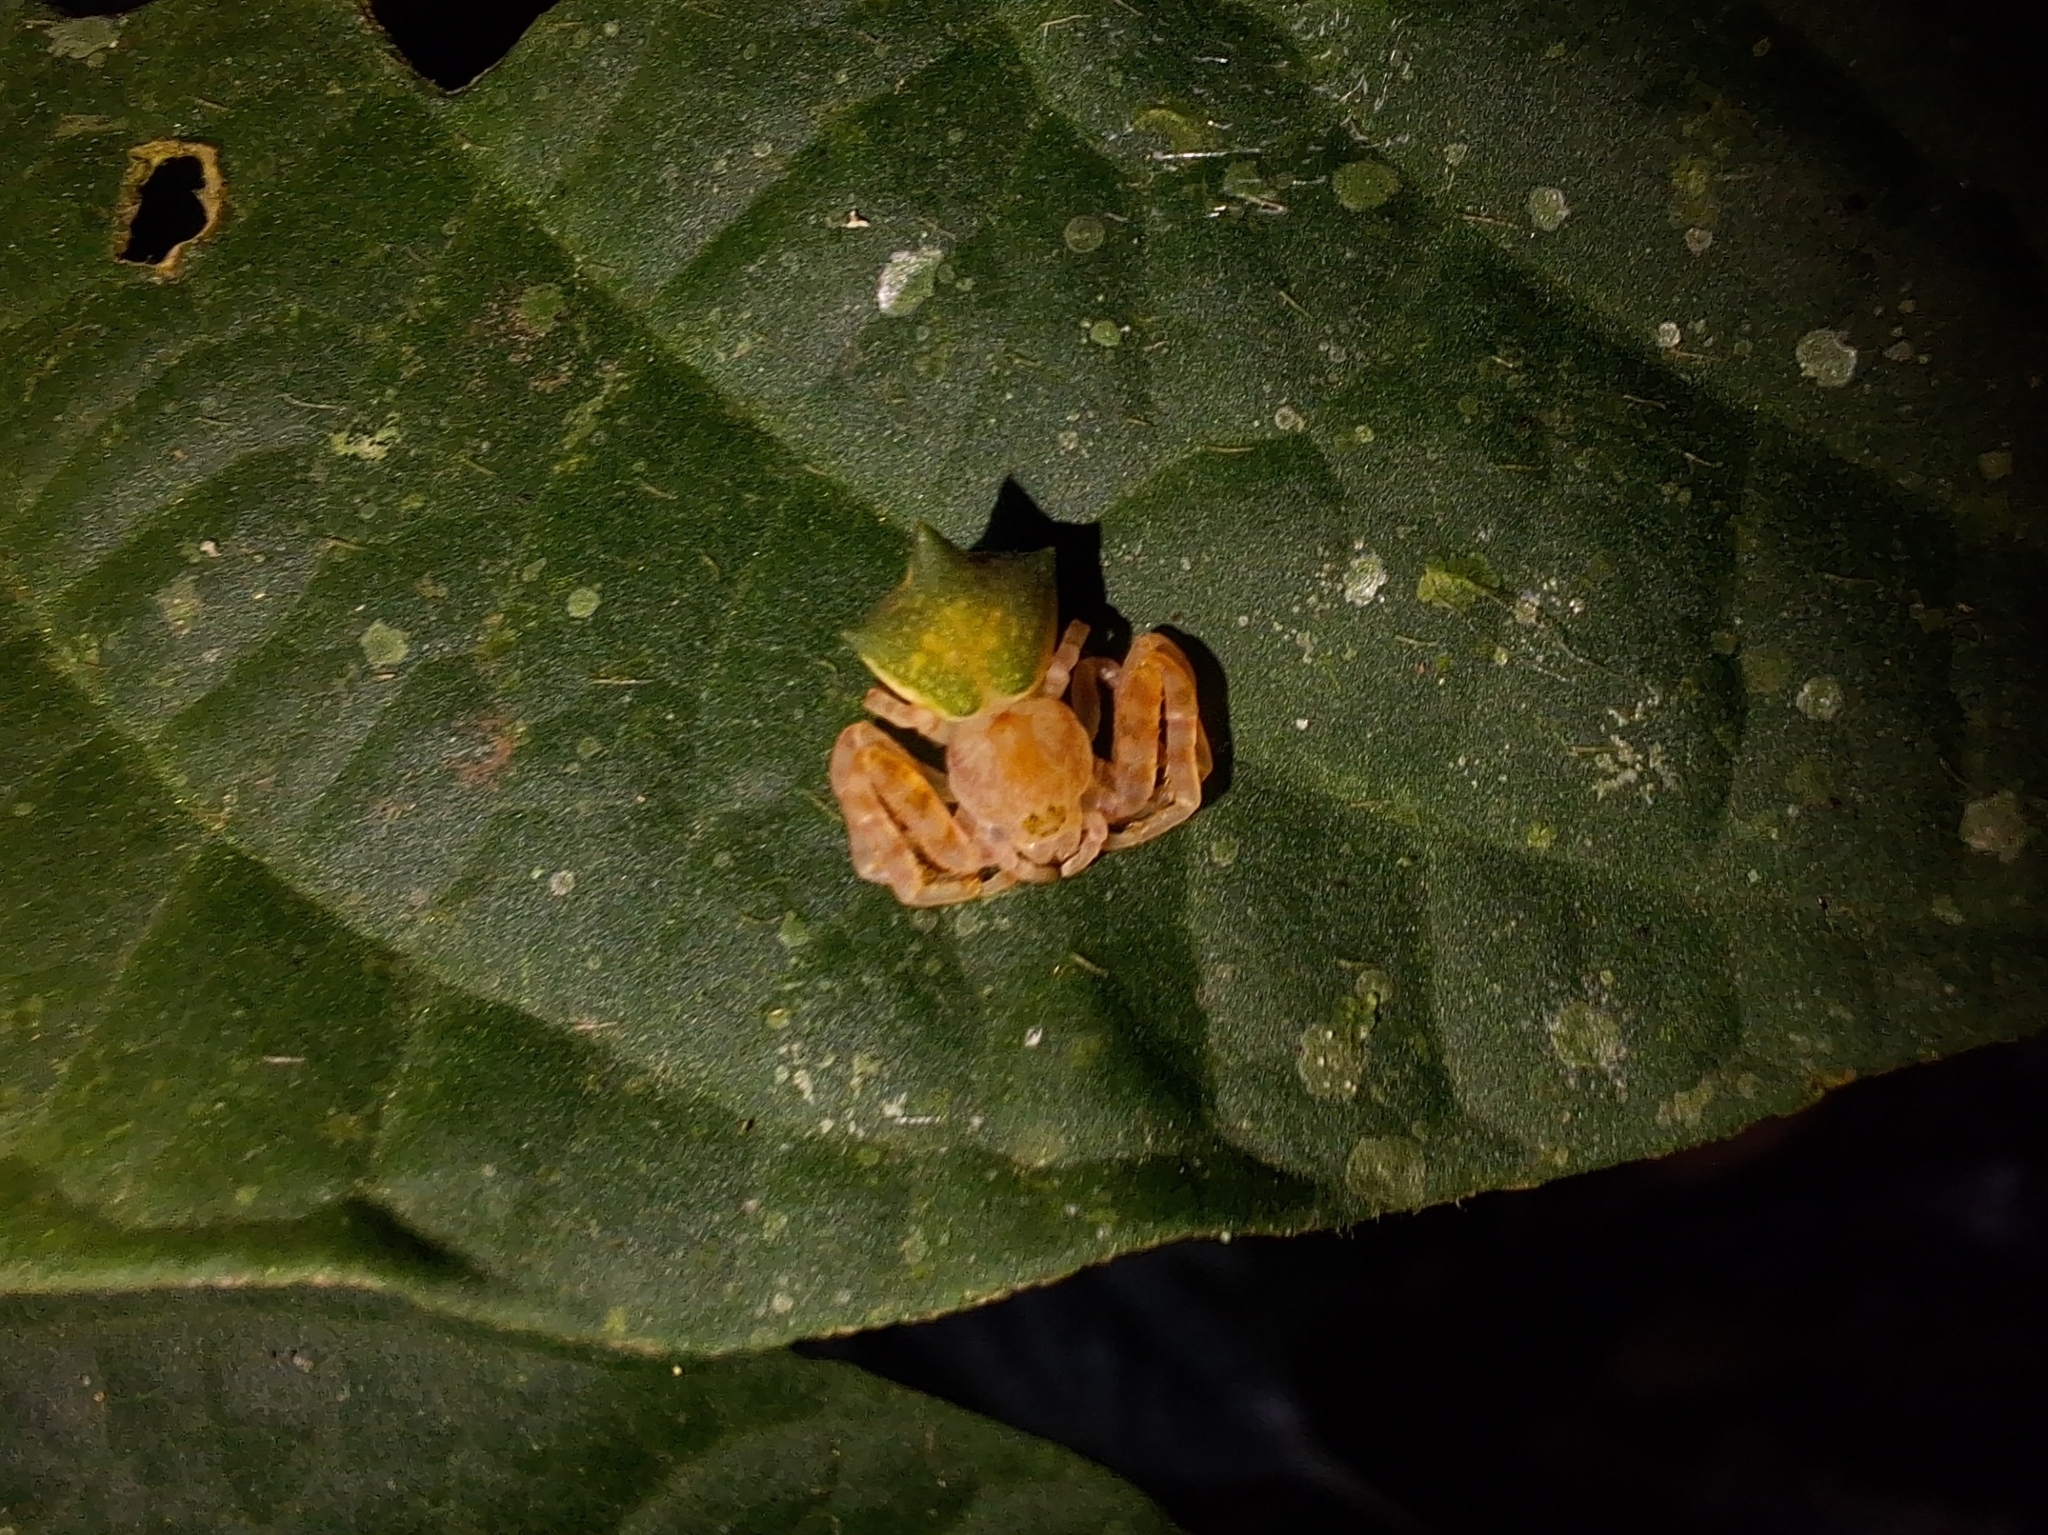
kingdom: Animalia
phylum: Arthropoda
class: Arachnida
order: Araneae
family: Thomisidae
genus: Epicadus
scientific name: Epicadus dimidiaster
